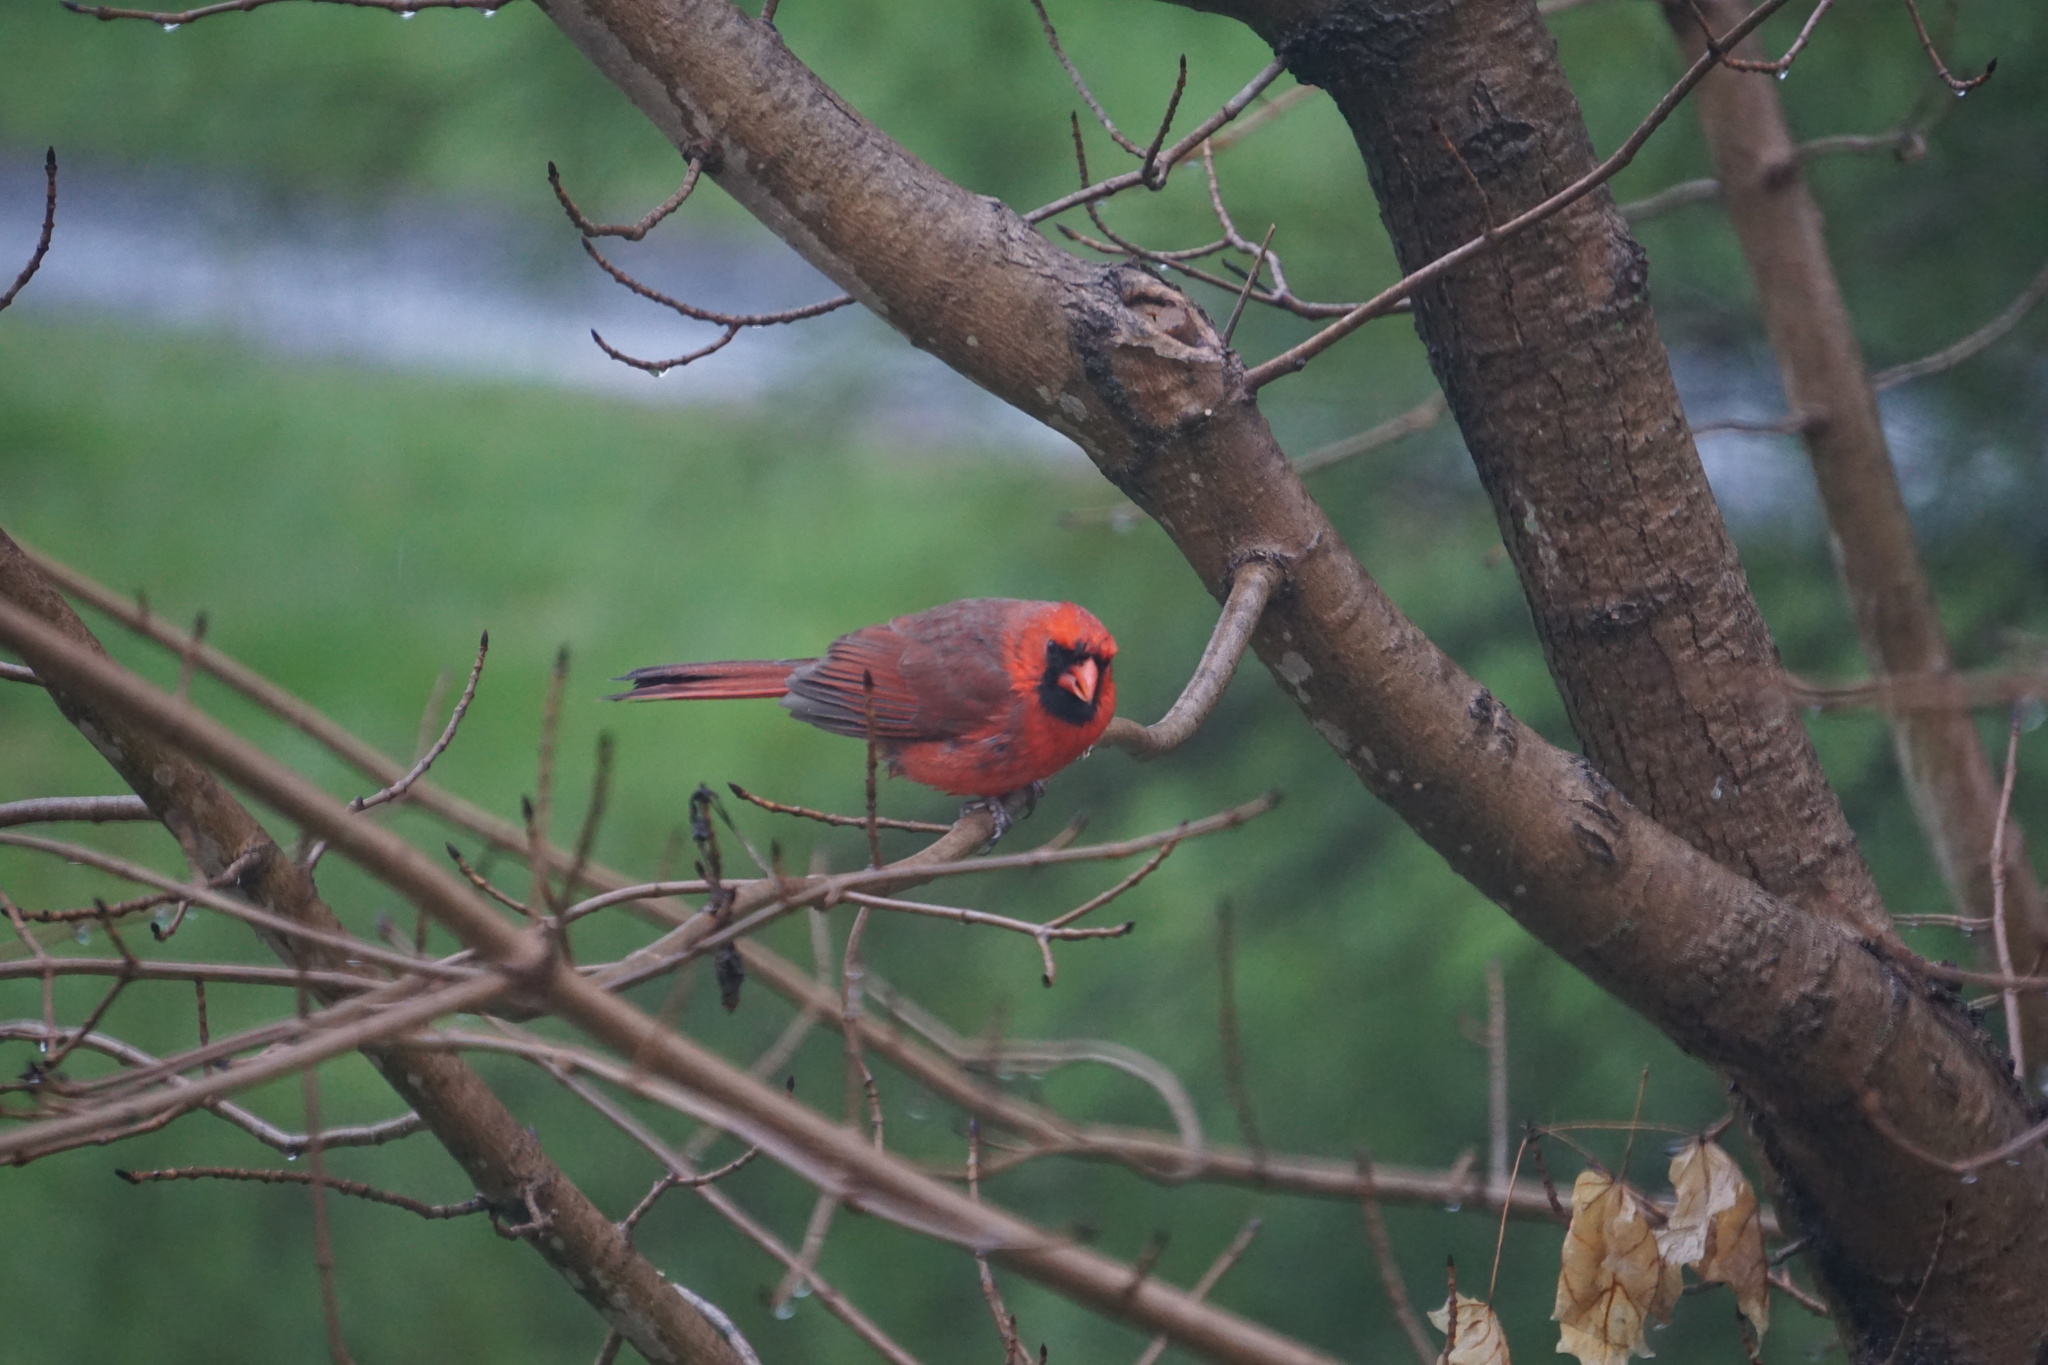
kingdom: Animalia
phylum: Chordata
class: Aves
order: Passeriformes
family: Cardinalidae
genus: Cardinalis
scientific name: Cardinalis cardinalis
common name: Northern cardinal
